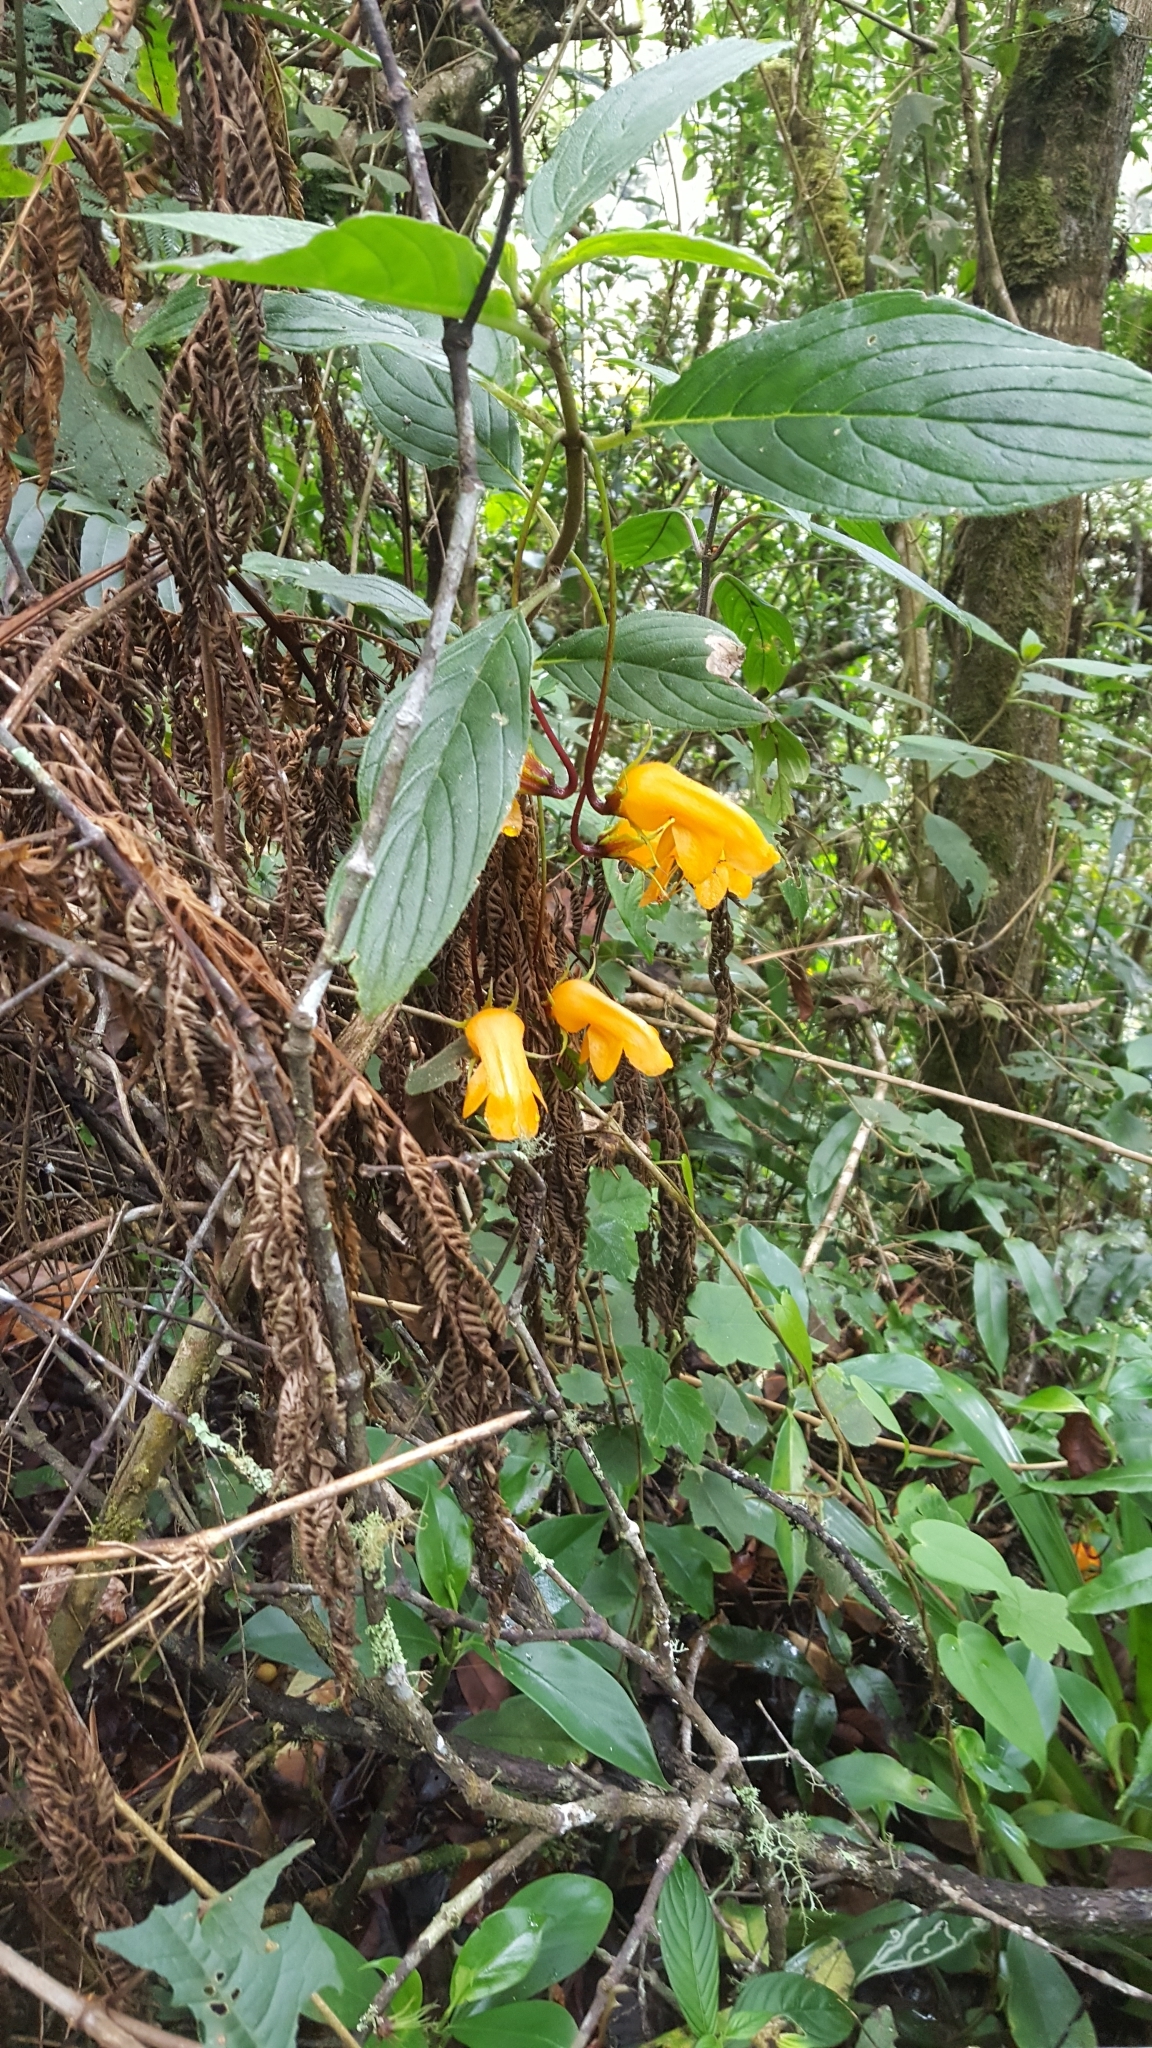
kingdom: Plantae
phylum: Tracheophyta
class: Magnoliopsida
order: Lamiales
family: Gesneriaceae
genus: Columnea
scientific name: Columnea strigosa
